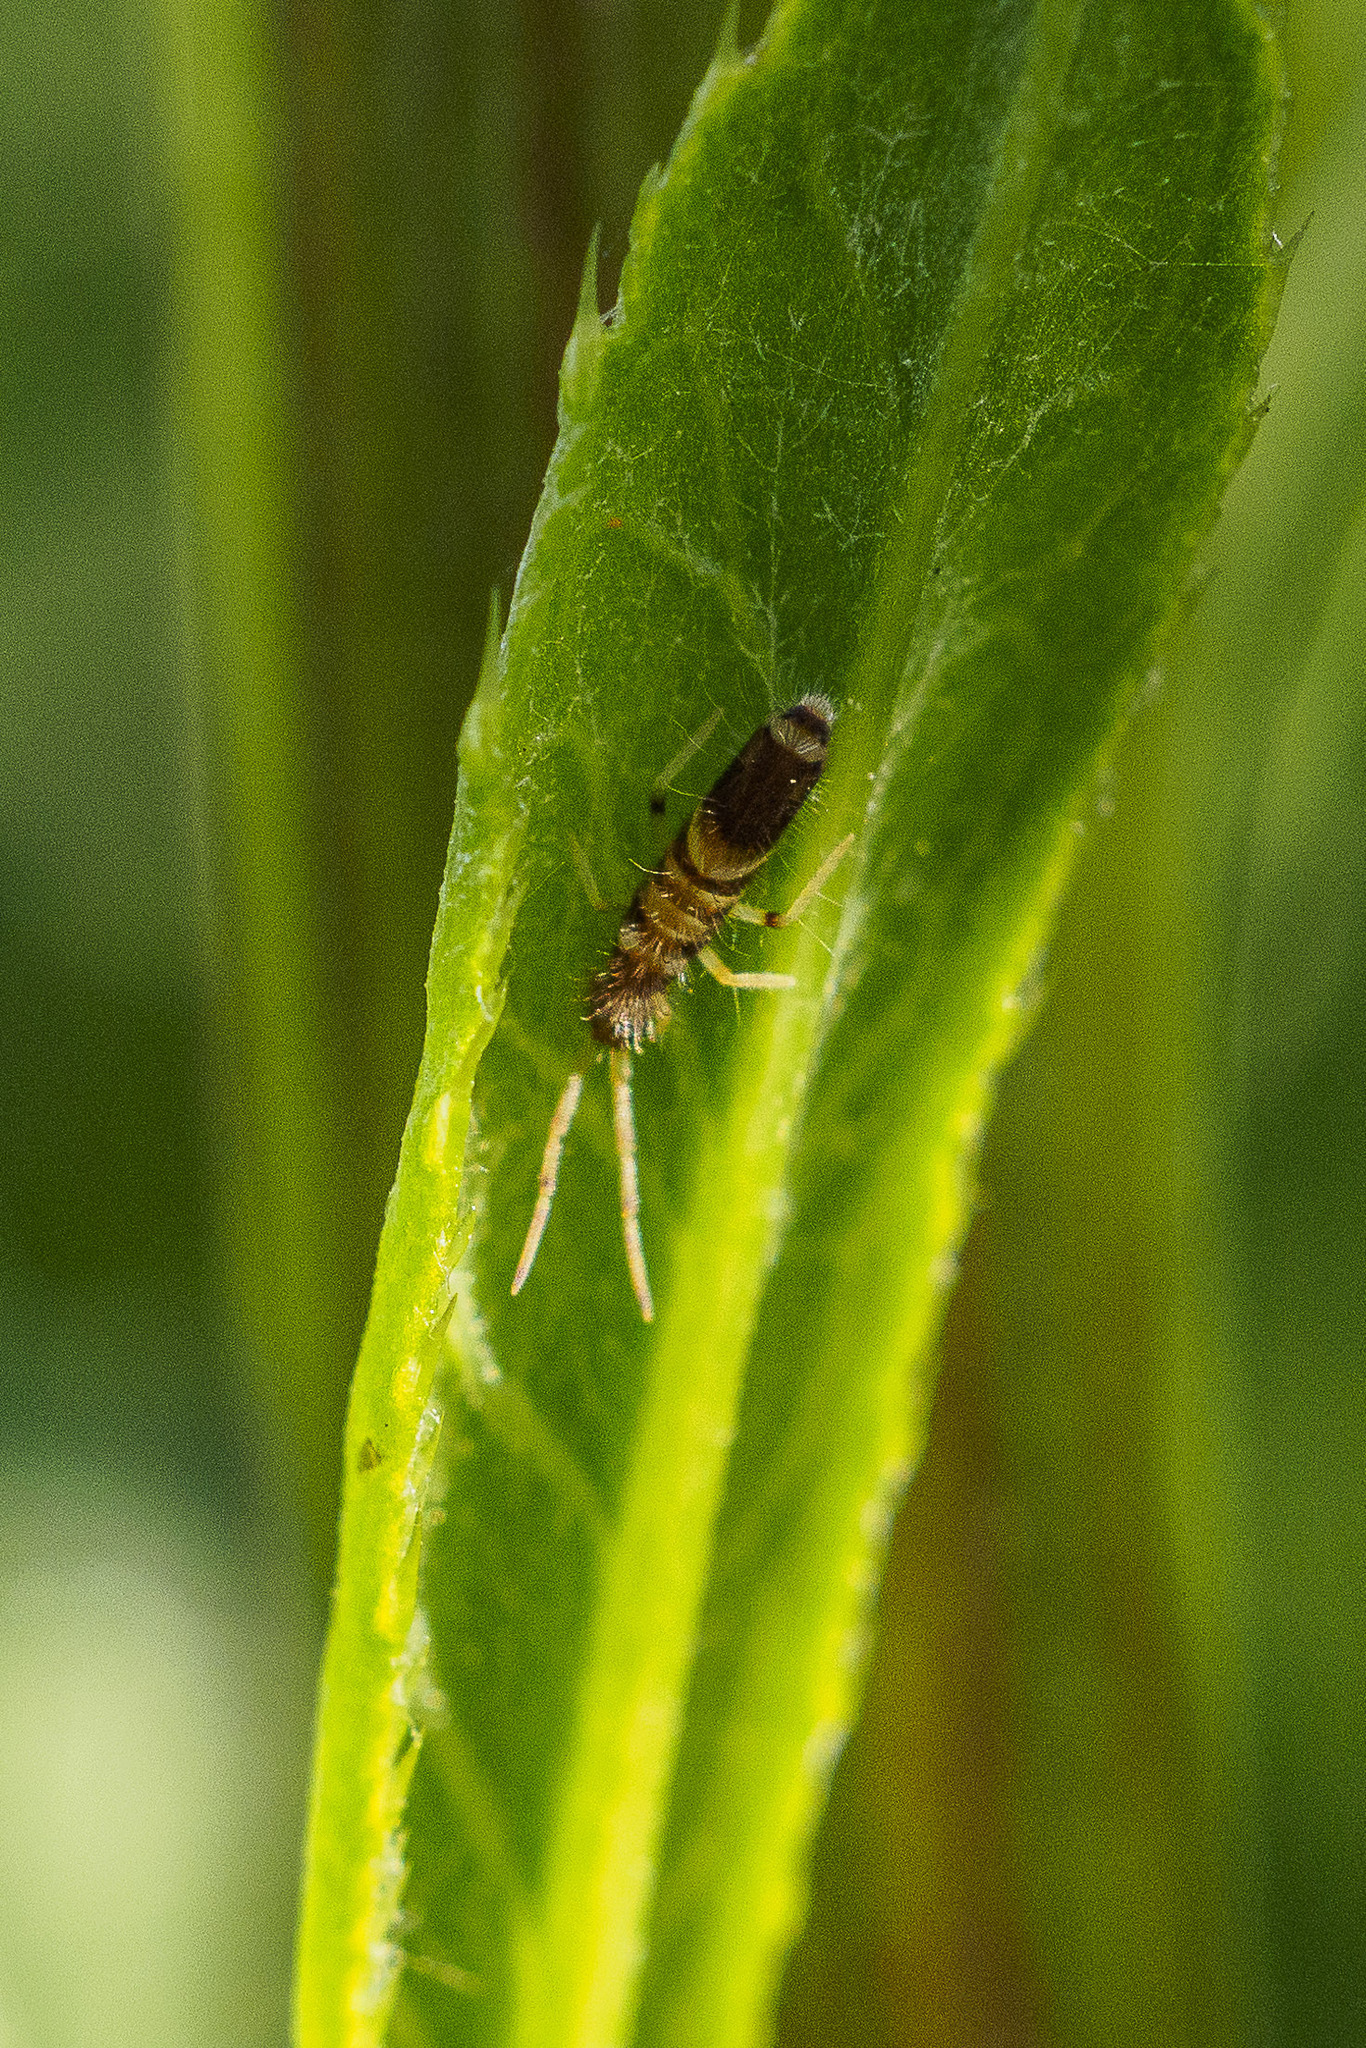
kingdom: Animalia
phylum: Arthropoda
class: Collembola
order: Entomobryomorpha
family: Entomobryidae
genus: Entomobrya
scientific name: Entomobrya superba
